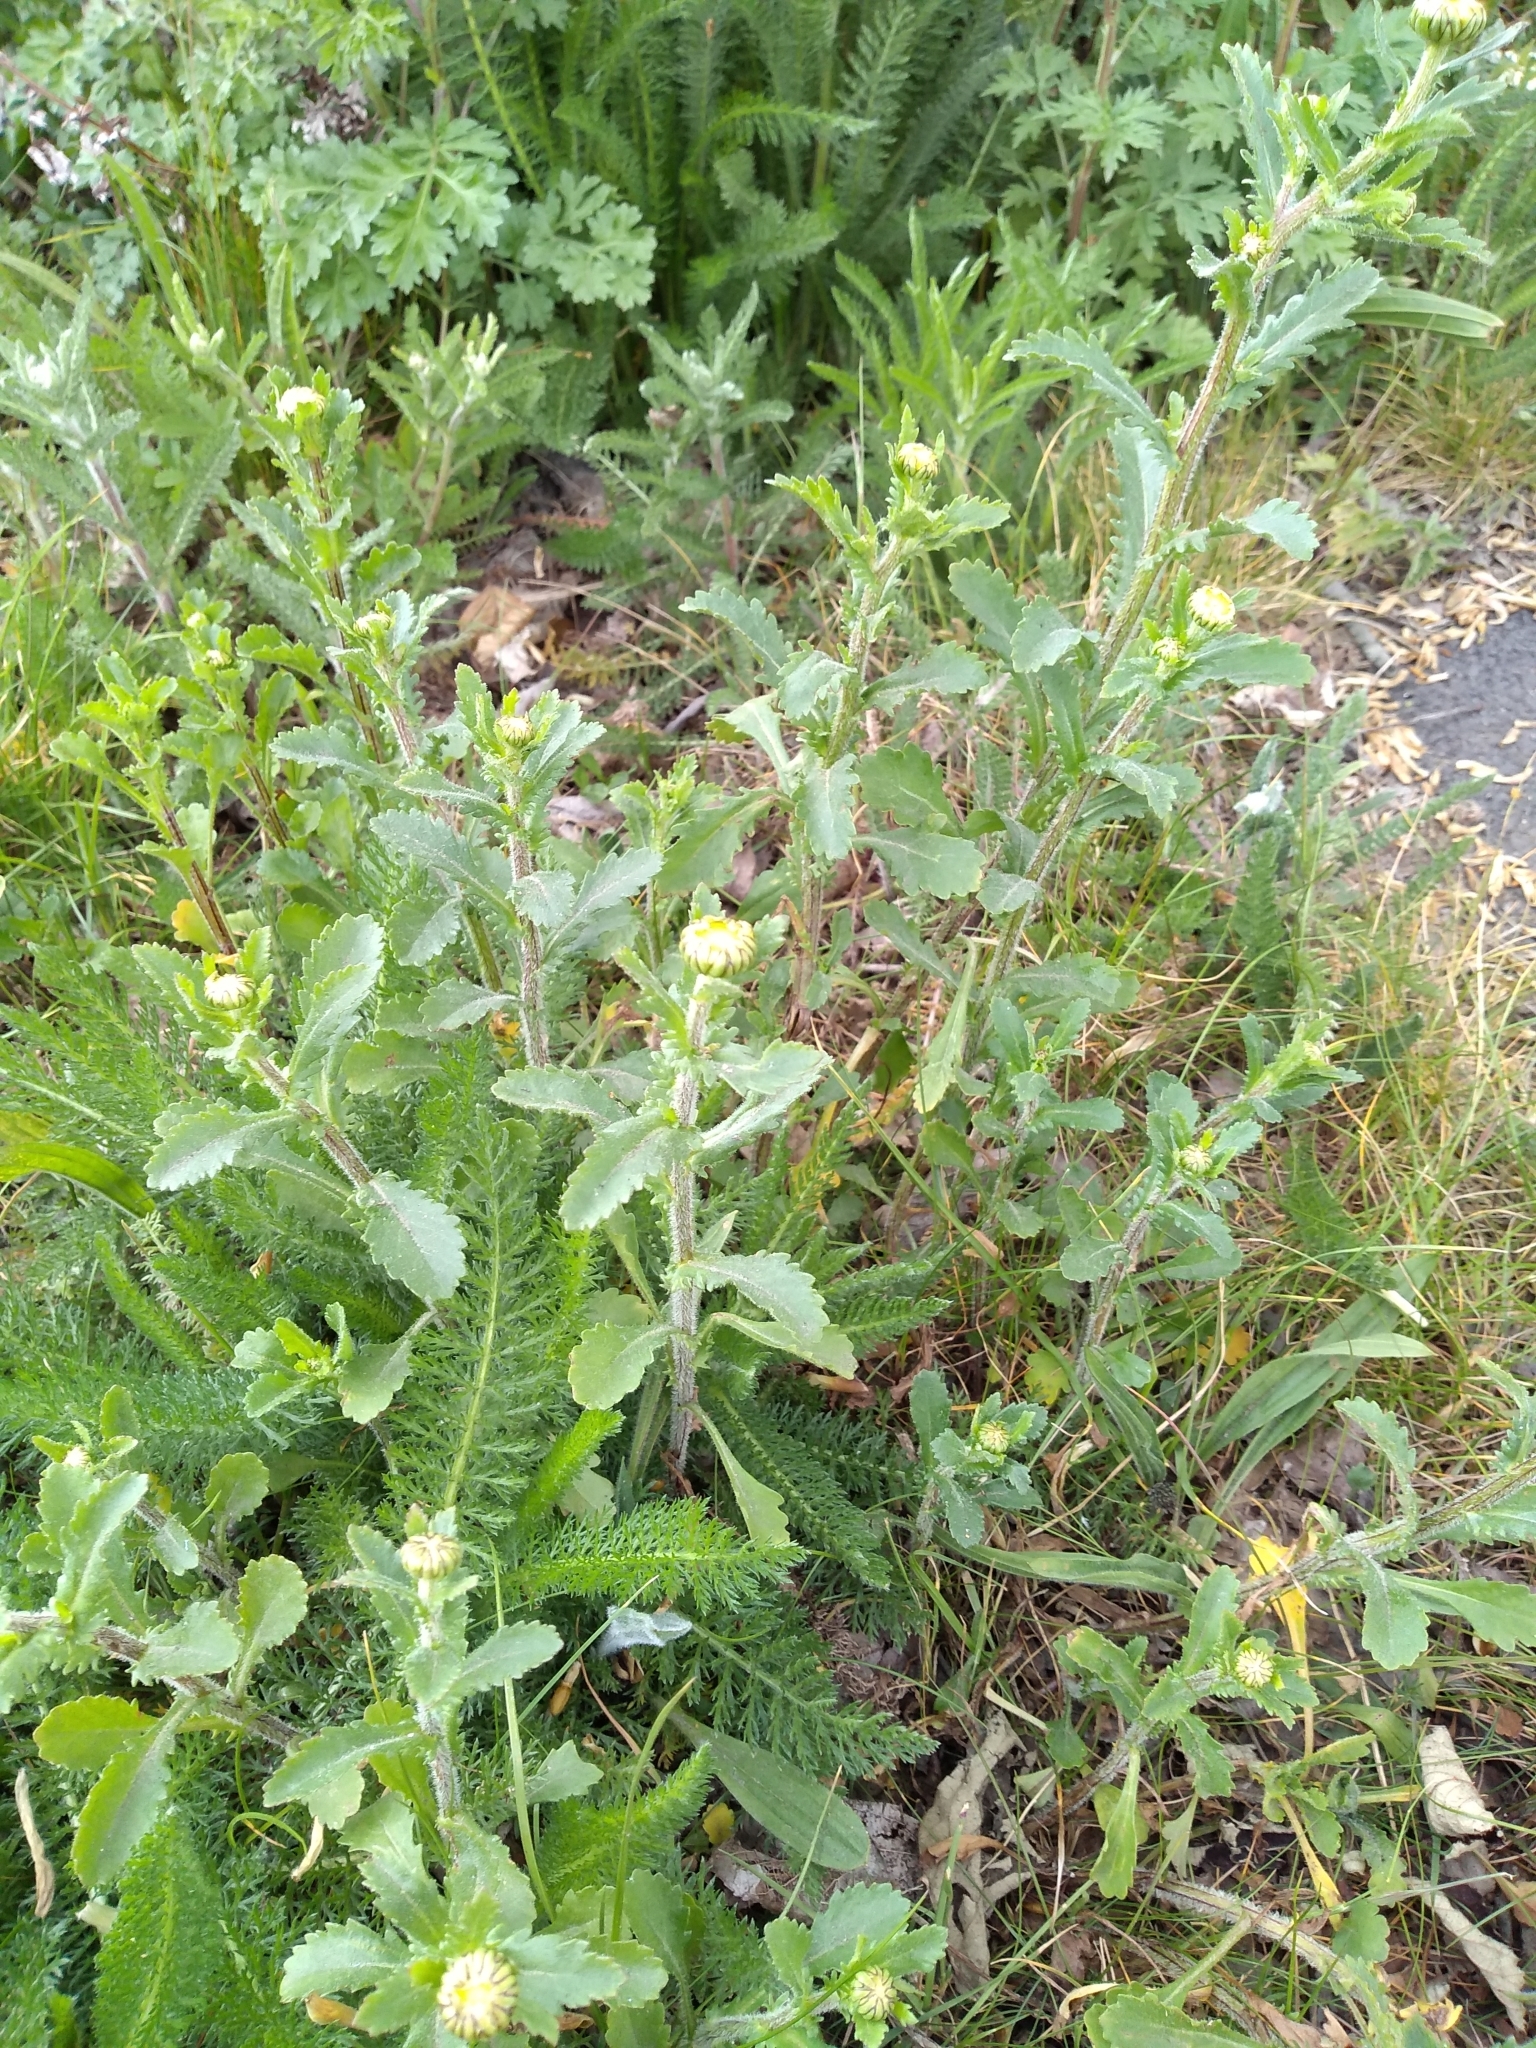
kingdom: Plantae
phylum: Tracheophyta
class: Magnoliopsida
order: Asterales
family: Asteraceae
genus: Leucanthemum
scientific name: Leucanthemum vulgare
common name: Oxeye daisy
